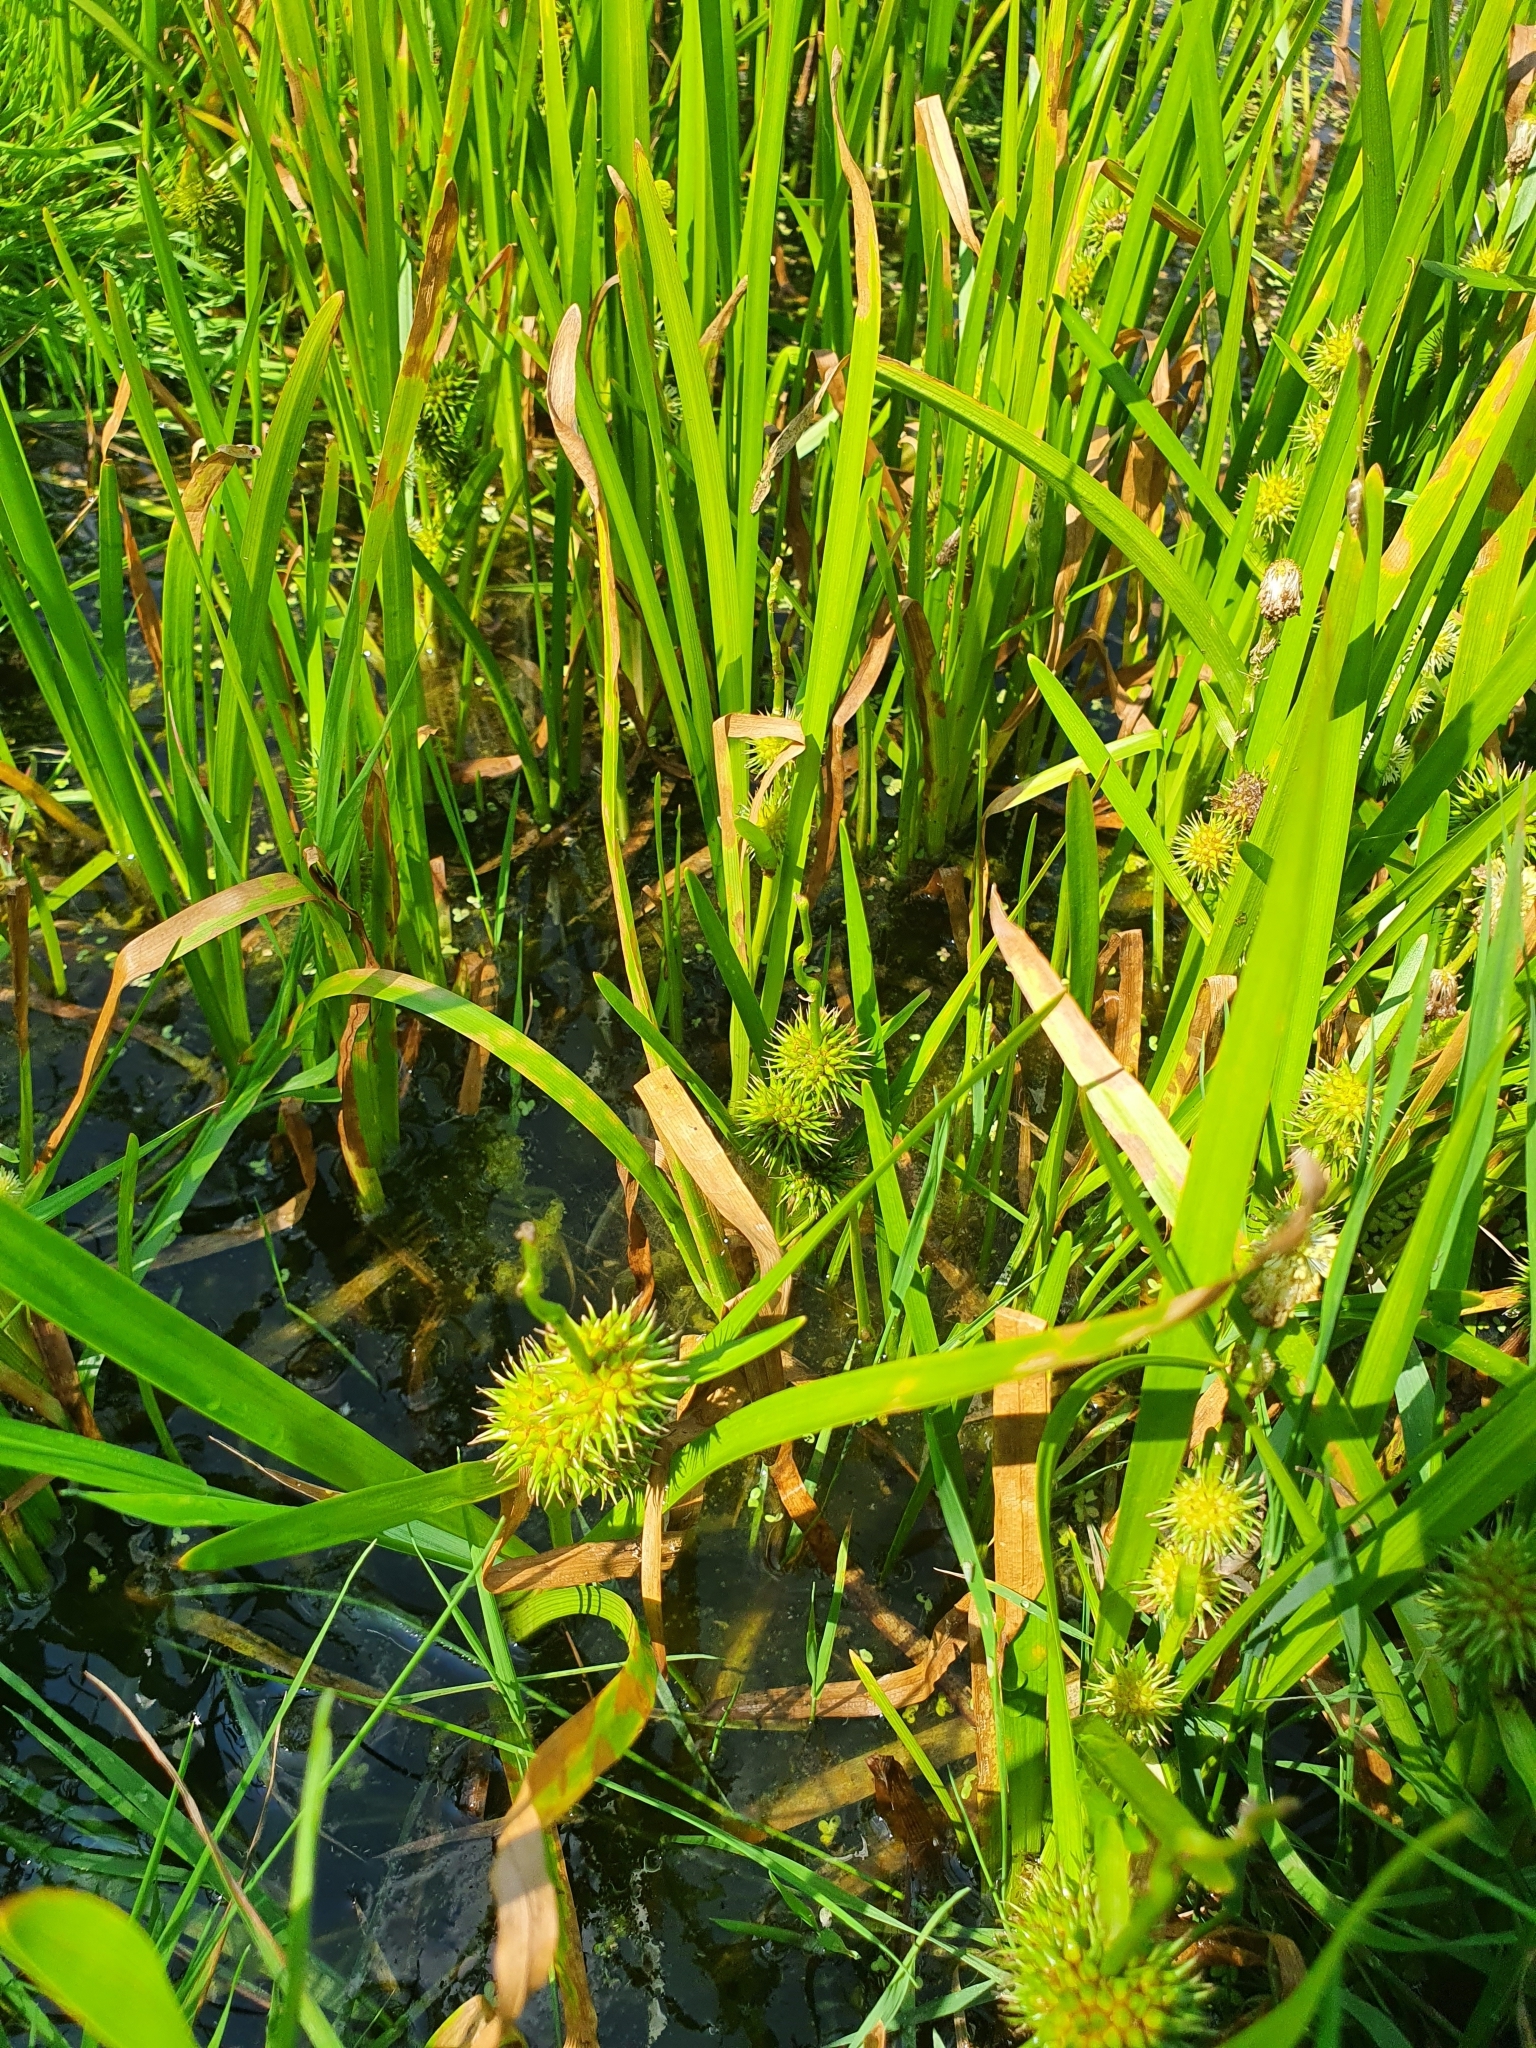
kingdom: Plantae
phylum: Tracheophyta
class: Liliopsida
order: Poales
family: Typhaceae
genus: Sparganium
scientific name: Sparganium emersum
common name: Unbranched bur-reed
